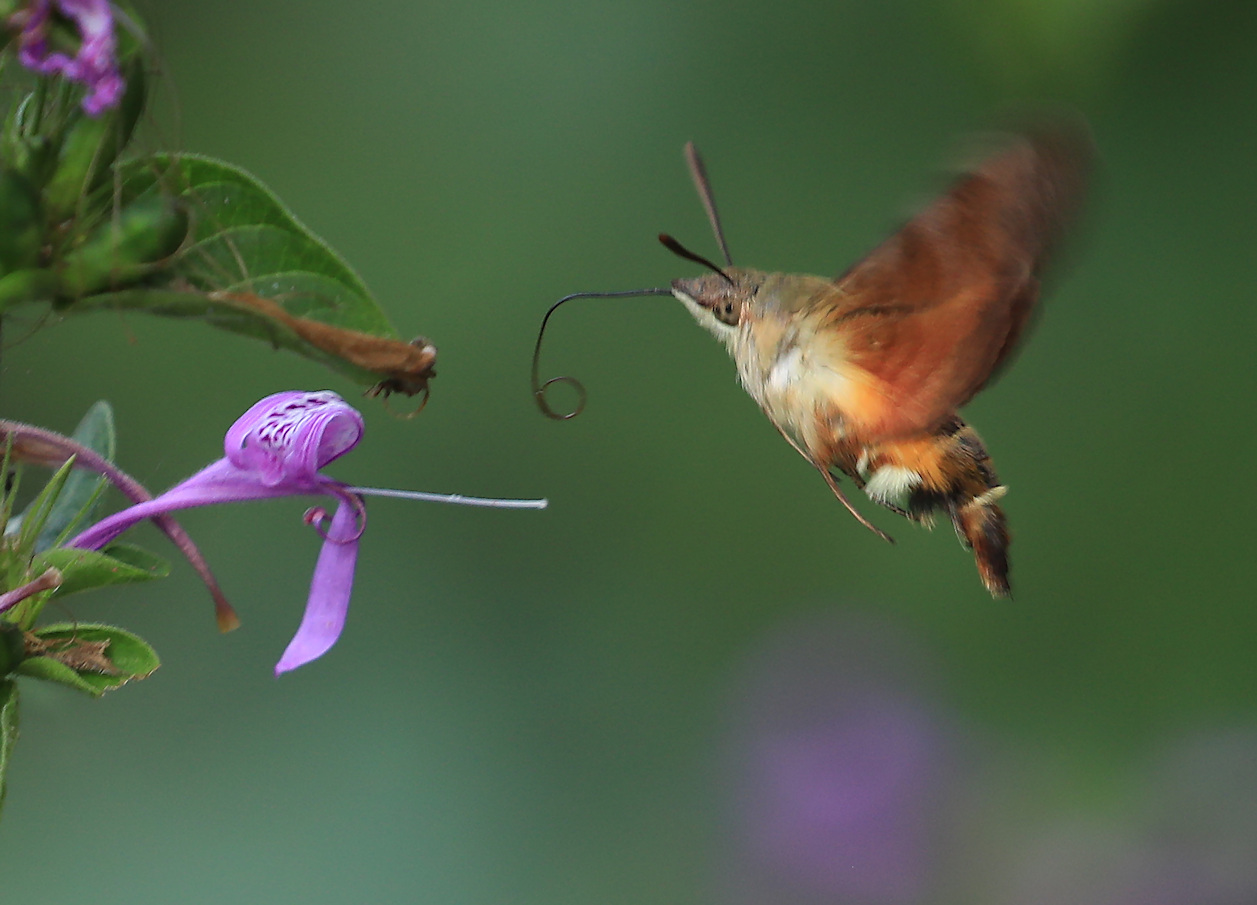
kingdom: Animalia
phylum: Arthropoda
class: Insecta
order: Lepidoptera
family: Sphingidae
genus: Macroglossum
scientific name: Macroglossum trochilus
